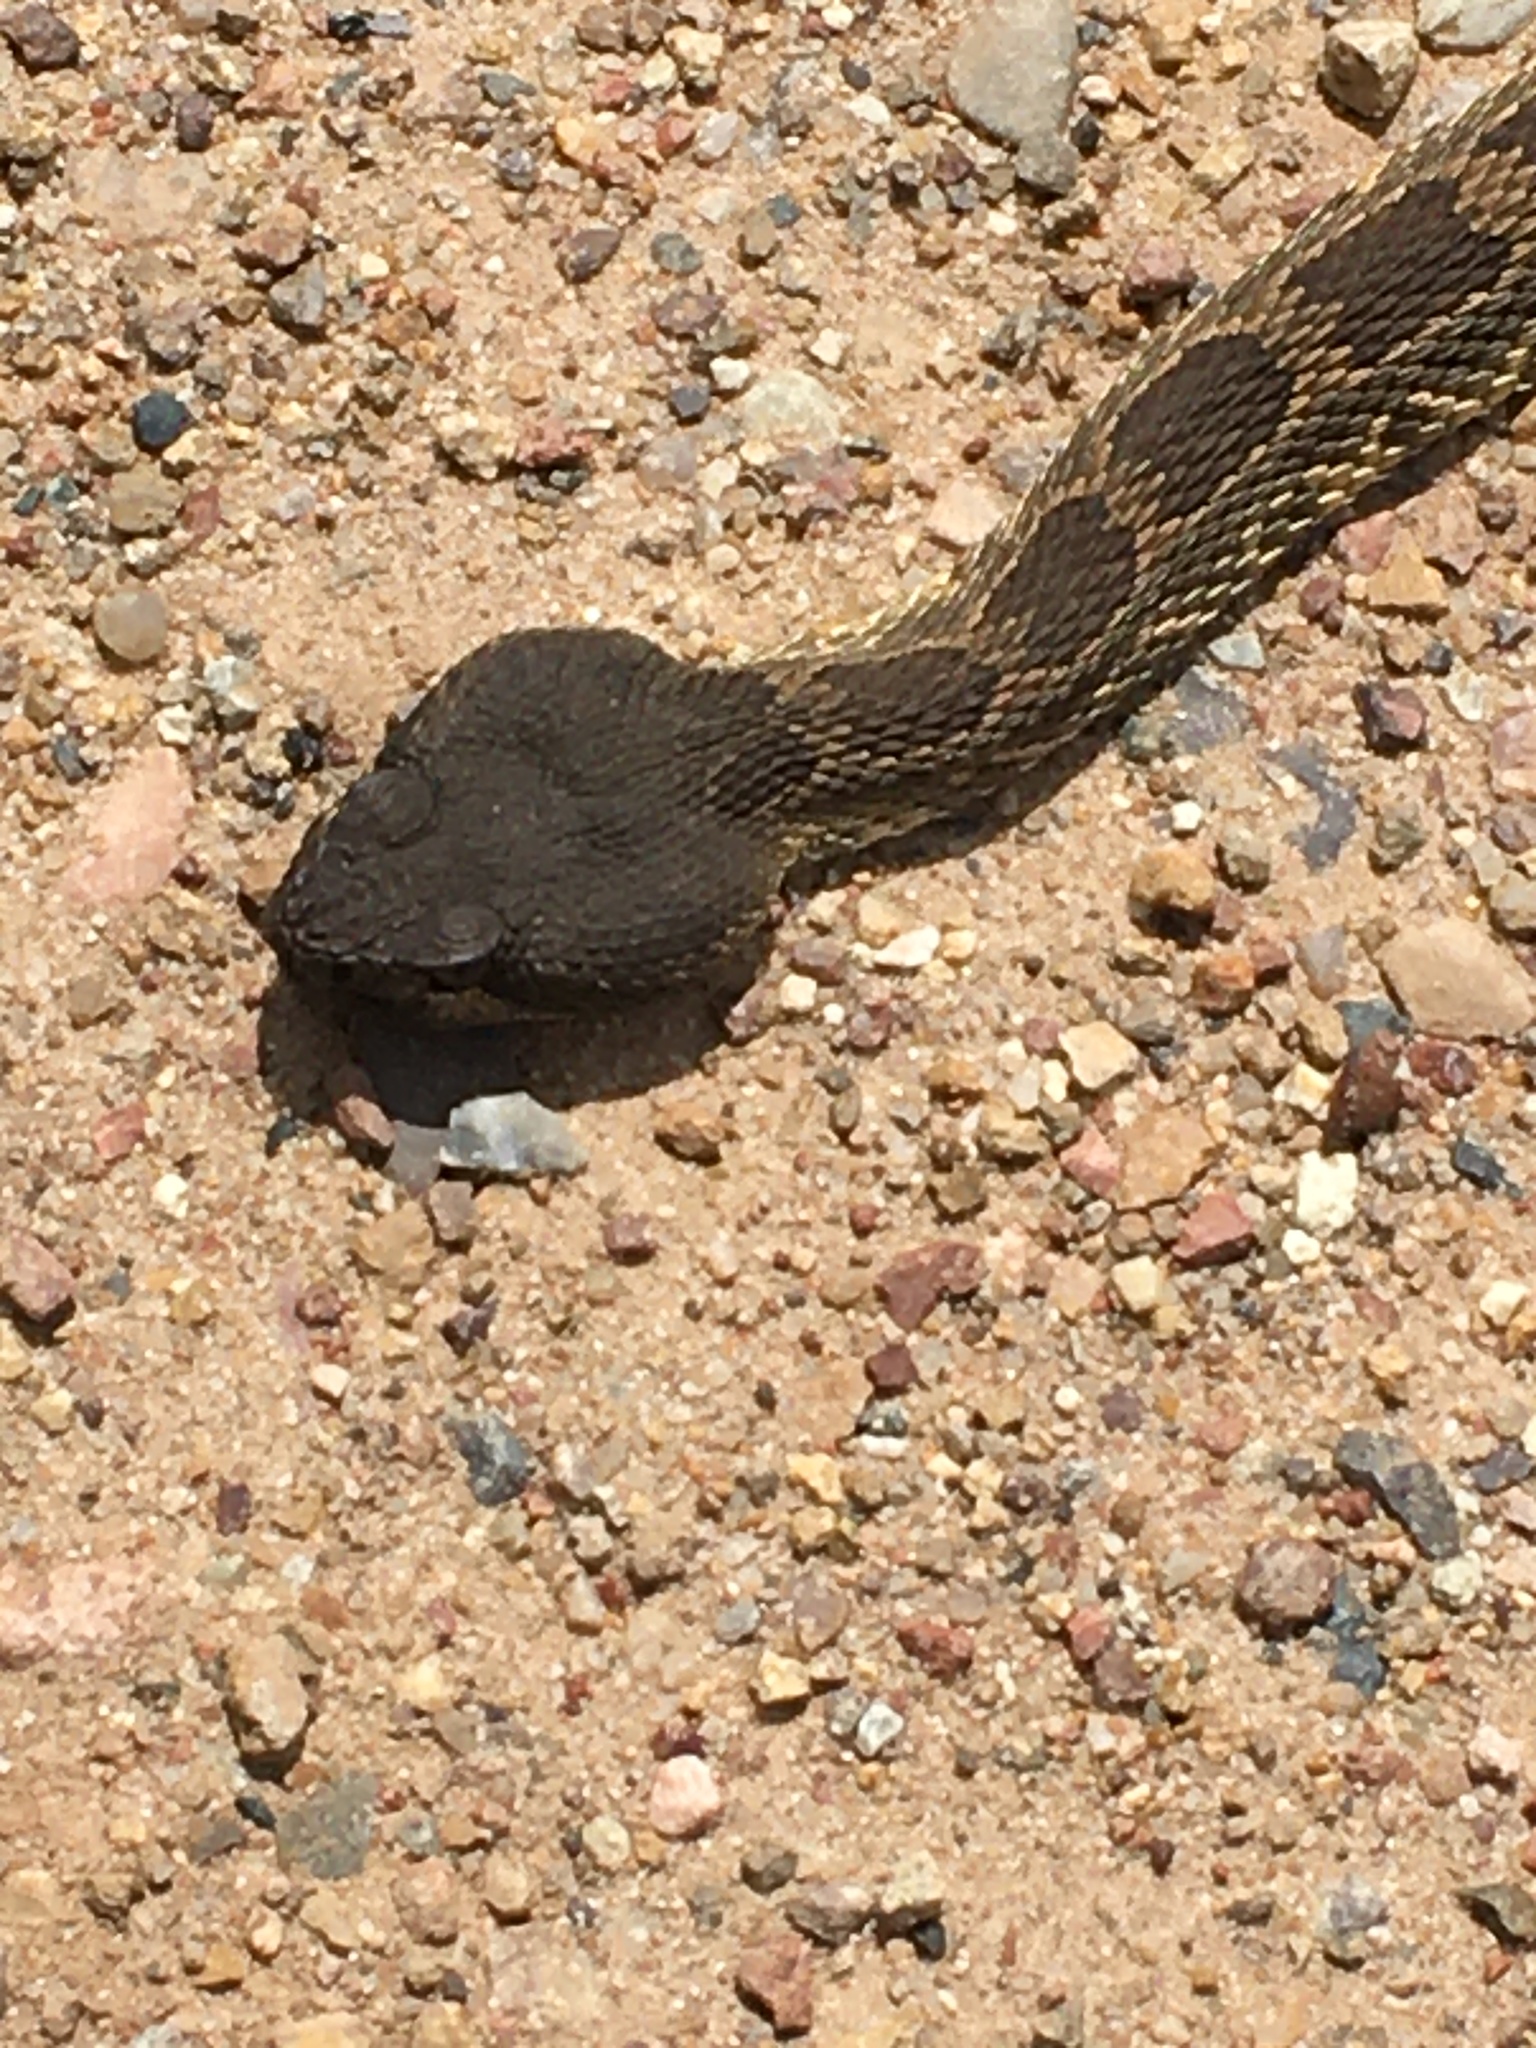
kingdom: Animalia
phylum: Chordata
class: Squamata
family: Viperidae
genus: Crotalus
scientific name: Crotalus oreganus
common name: Abyssus
